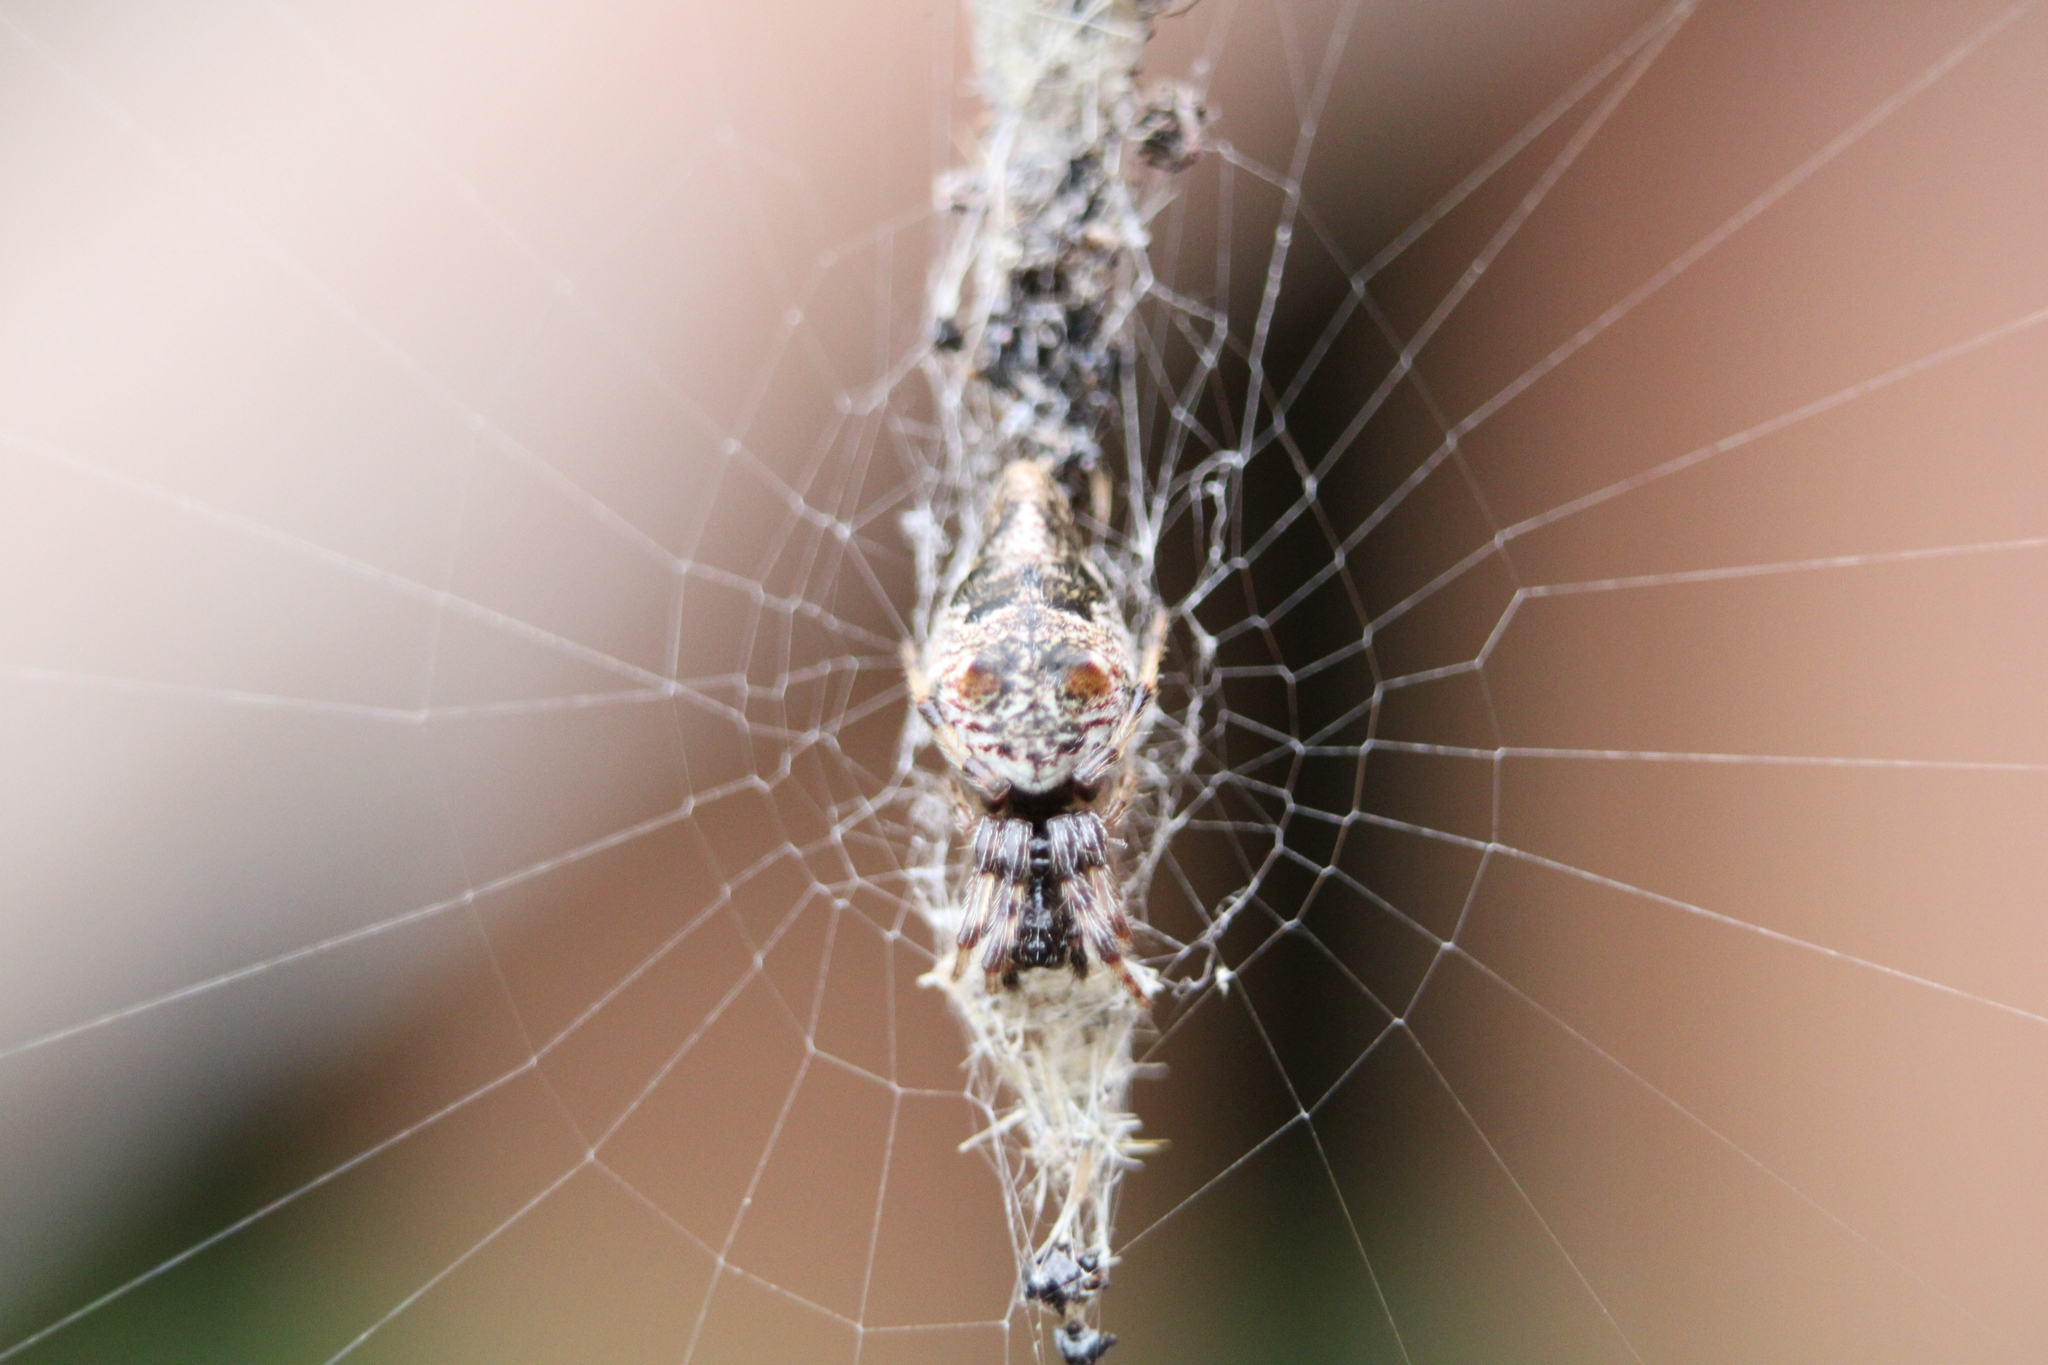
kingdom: Animalia
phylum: Arthropoda
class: Arachnida
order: Araneae
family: Araneidae
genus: Cyclosa
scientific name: Cyclosa turbinata
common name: Orb weavers
